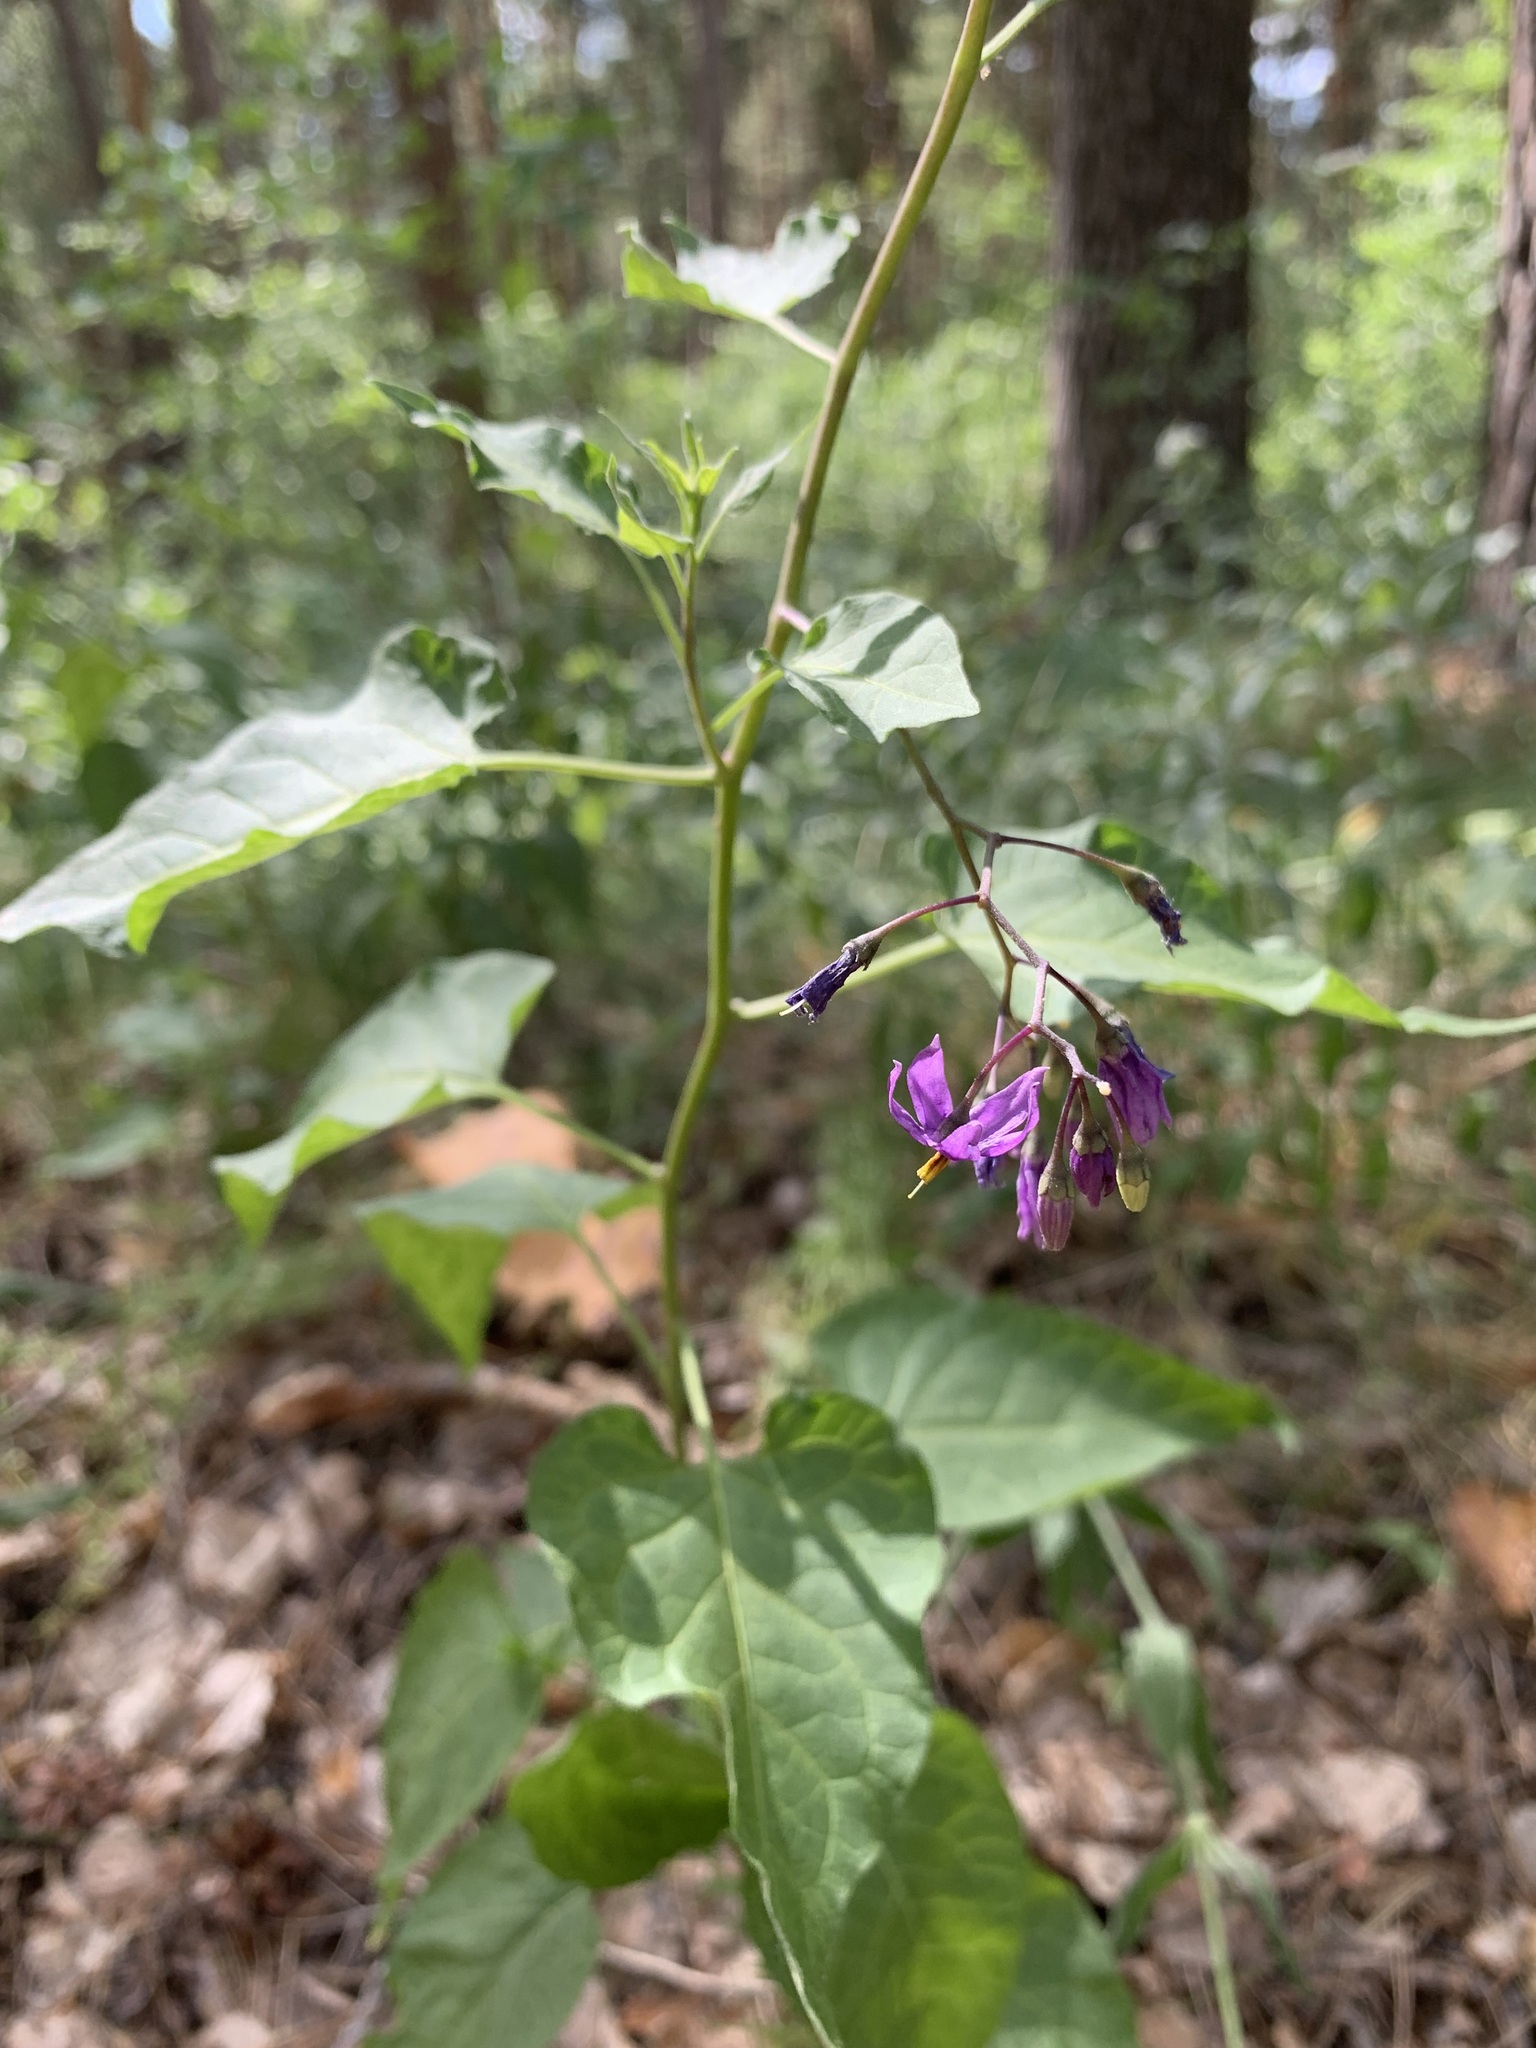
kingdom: Plantae
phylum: Tracheophyta
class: Magnoliopsida
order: Solanales
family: Solanaceae
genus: Solanum
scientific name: Solanum dulcamara
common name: Climbing nightshade
